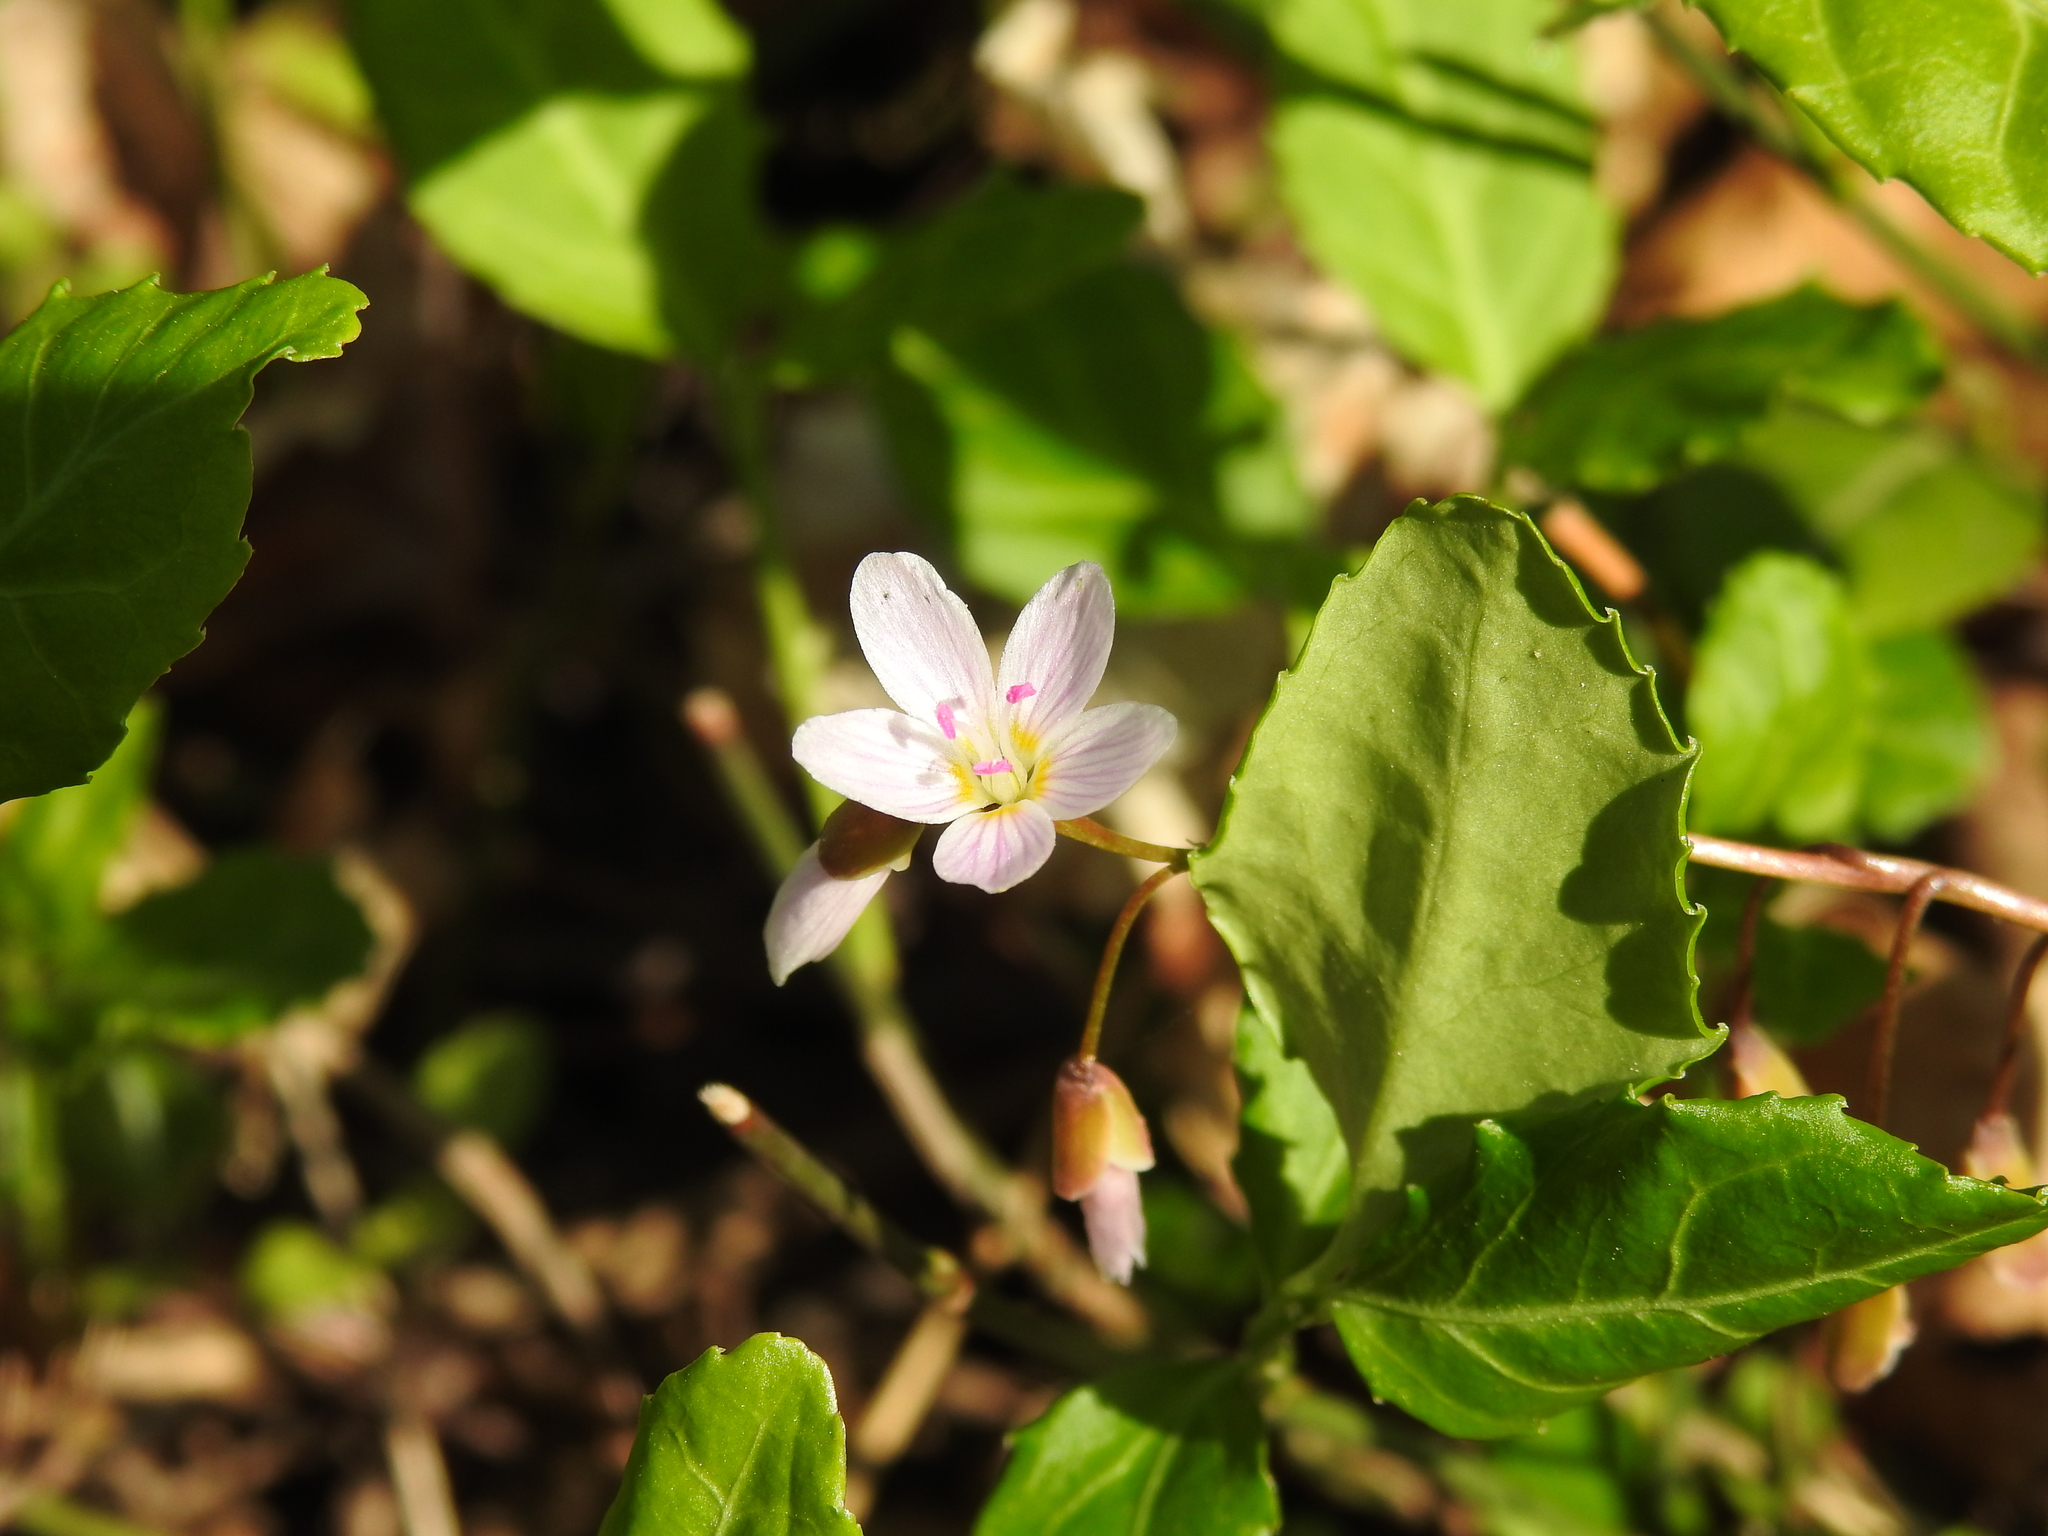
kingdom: Plantae
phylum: Tracheophyta
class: Magnoliopsida
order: Caryophyllales
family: Montiaceae
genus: Claytonia
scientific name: Claytonia virginica
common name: Virginia springbeauty
